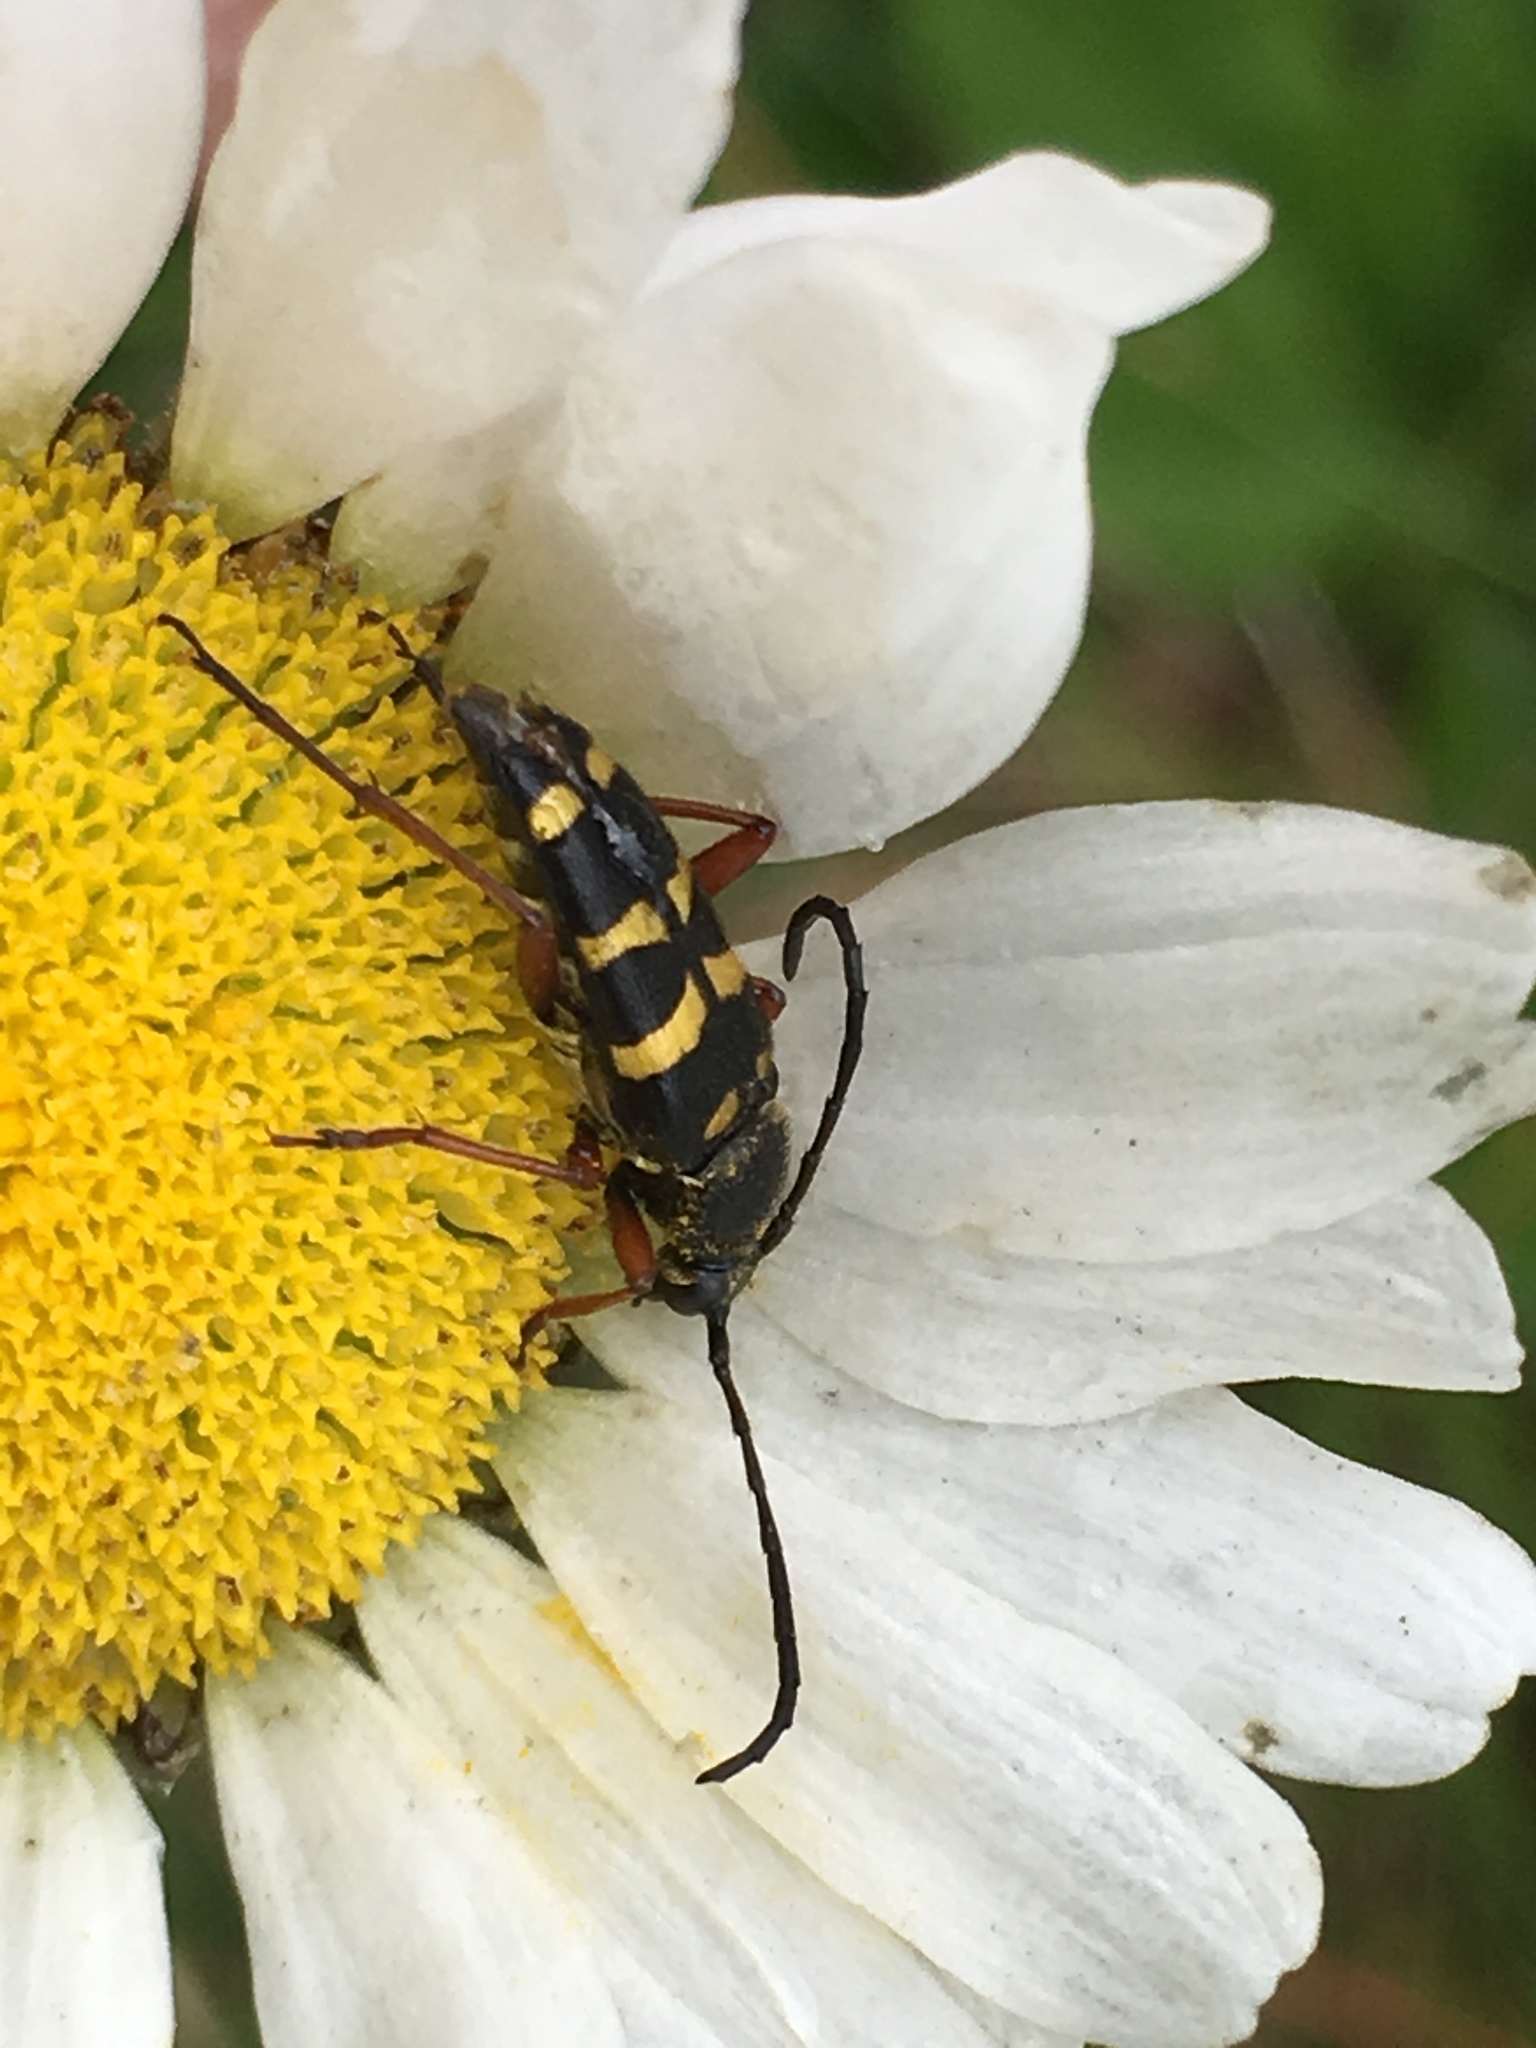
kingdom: Animalia
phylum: Arthropoda
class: Insecta
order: Coleoptera
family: Cerambycidae
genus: Typocerus
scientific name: Typocerus sparsus
